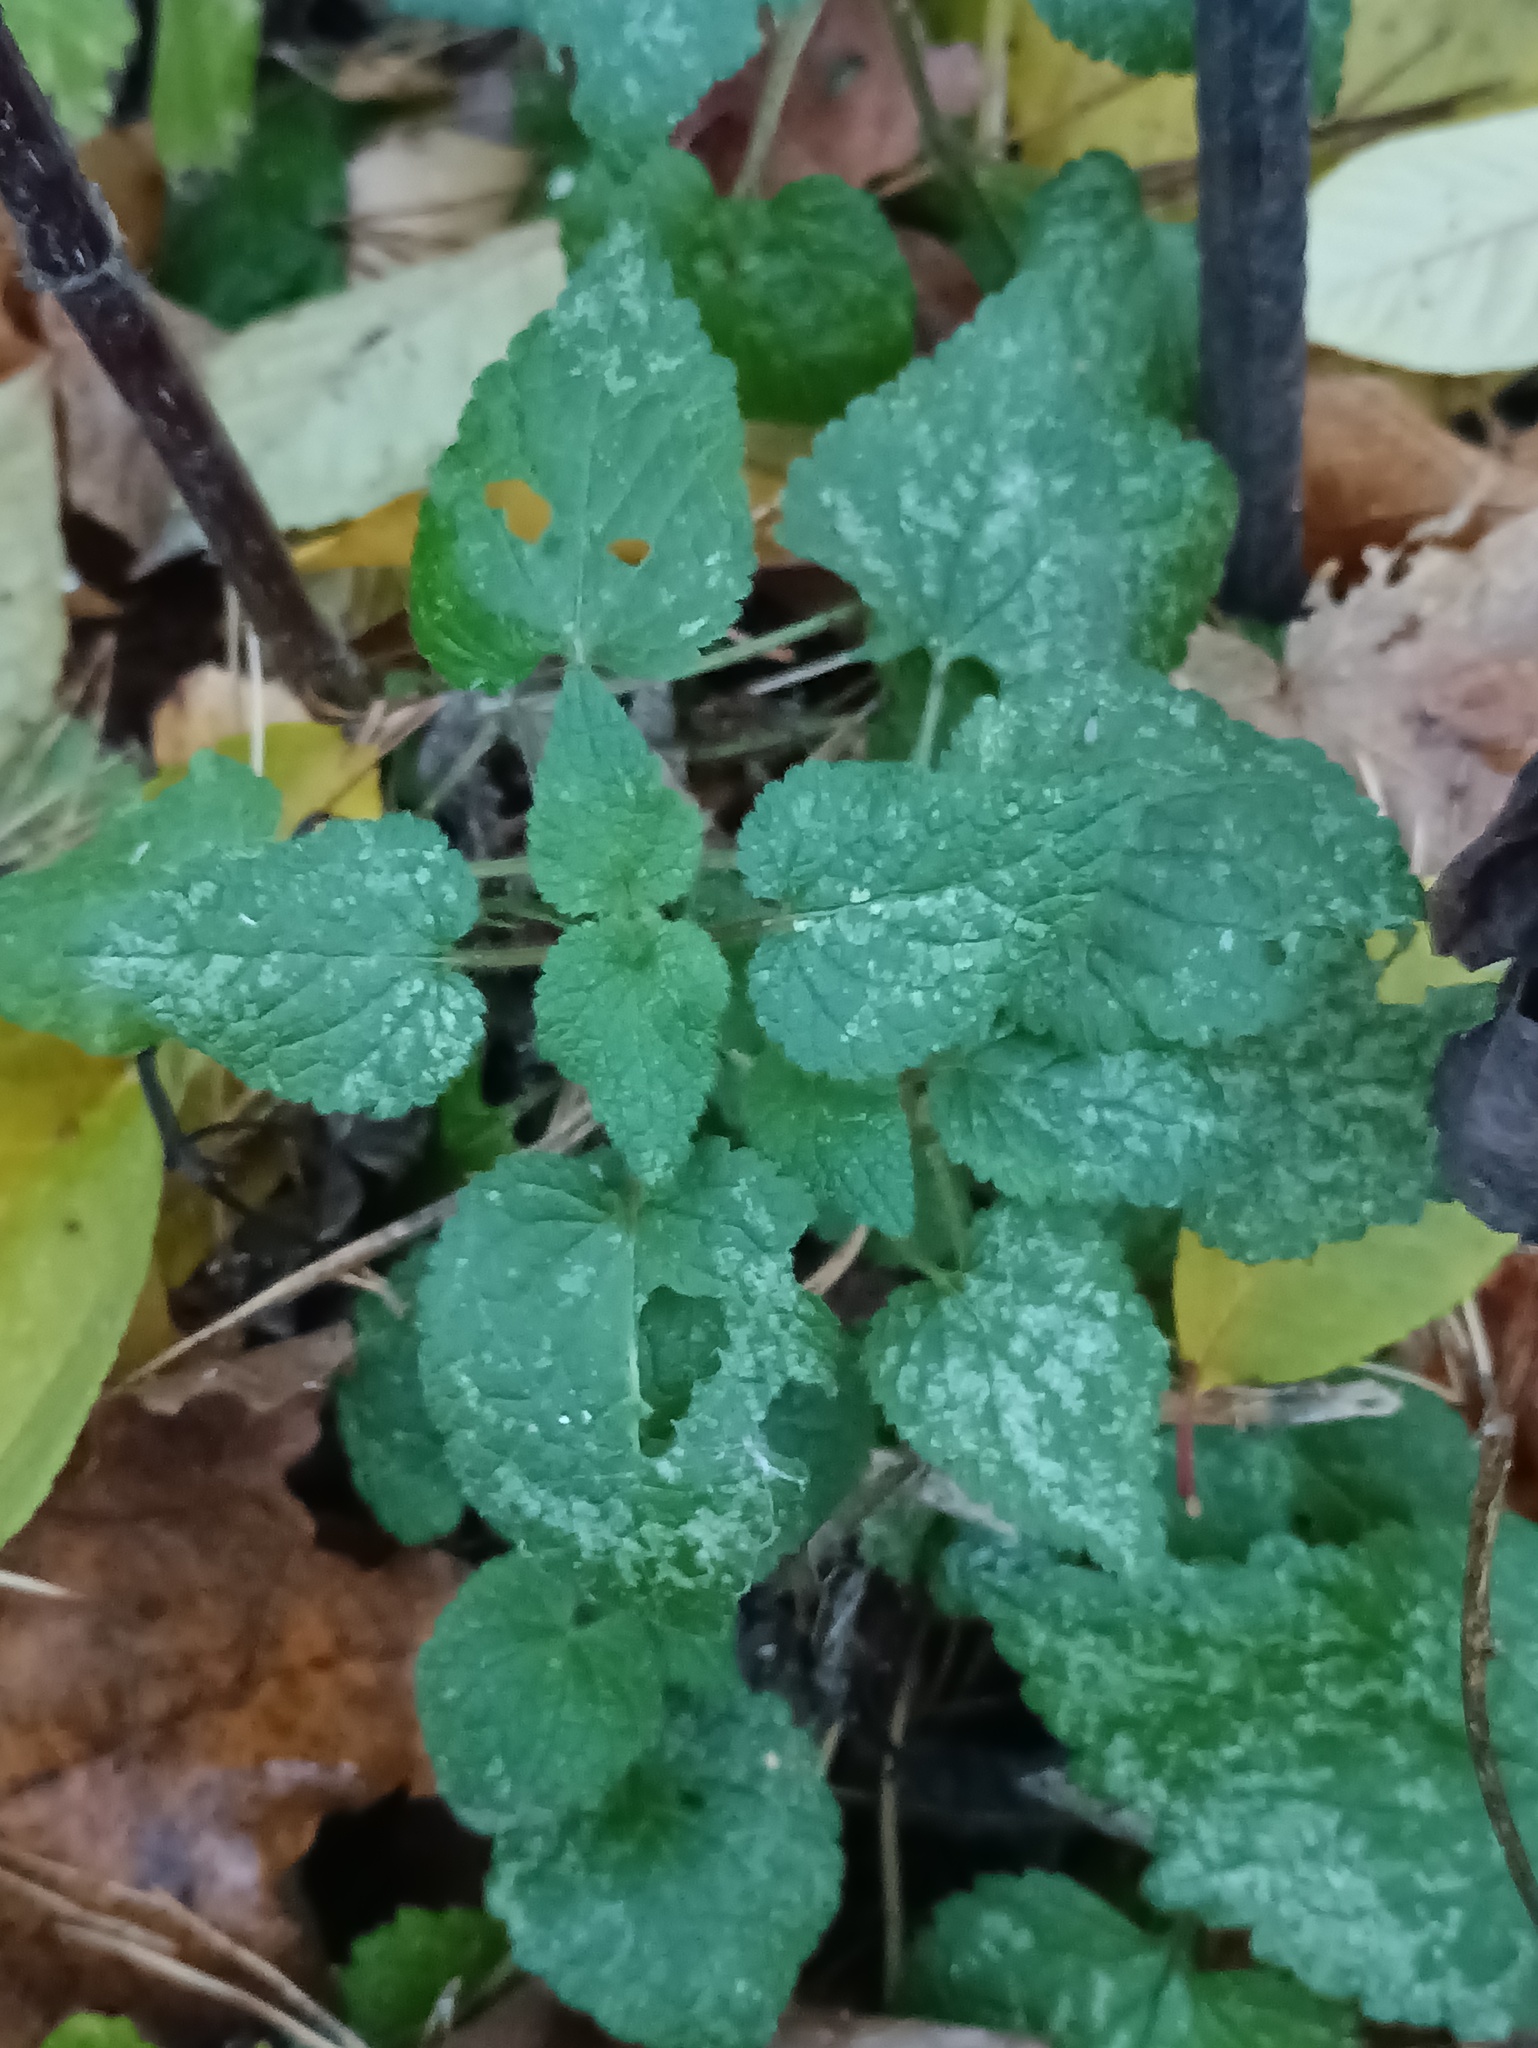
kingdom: Plantae
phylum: Tracheophyta
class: Magnoliopsida
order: Lamiales
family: Lamiaceae
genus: Lamium
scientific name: Lamium maculatum
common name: Spotted dead-nettle
